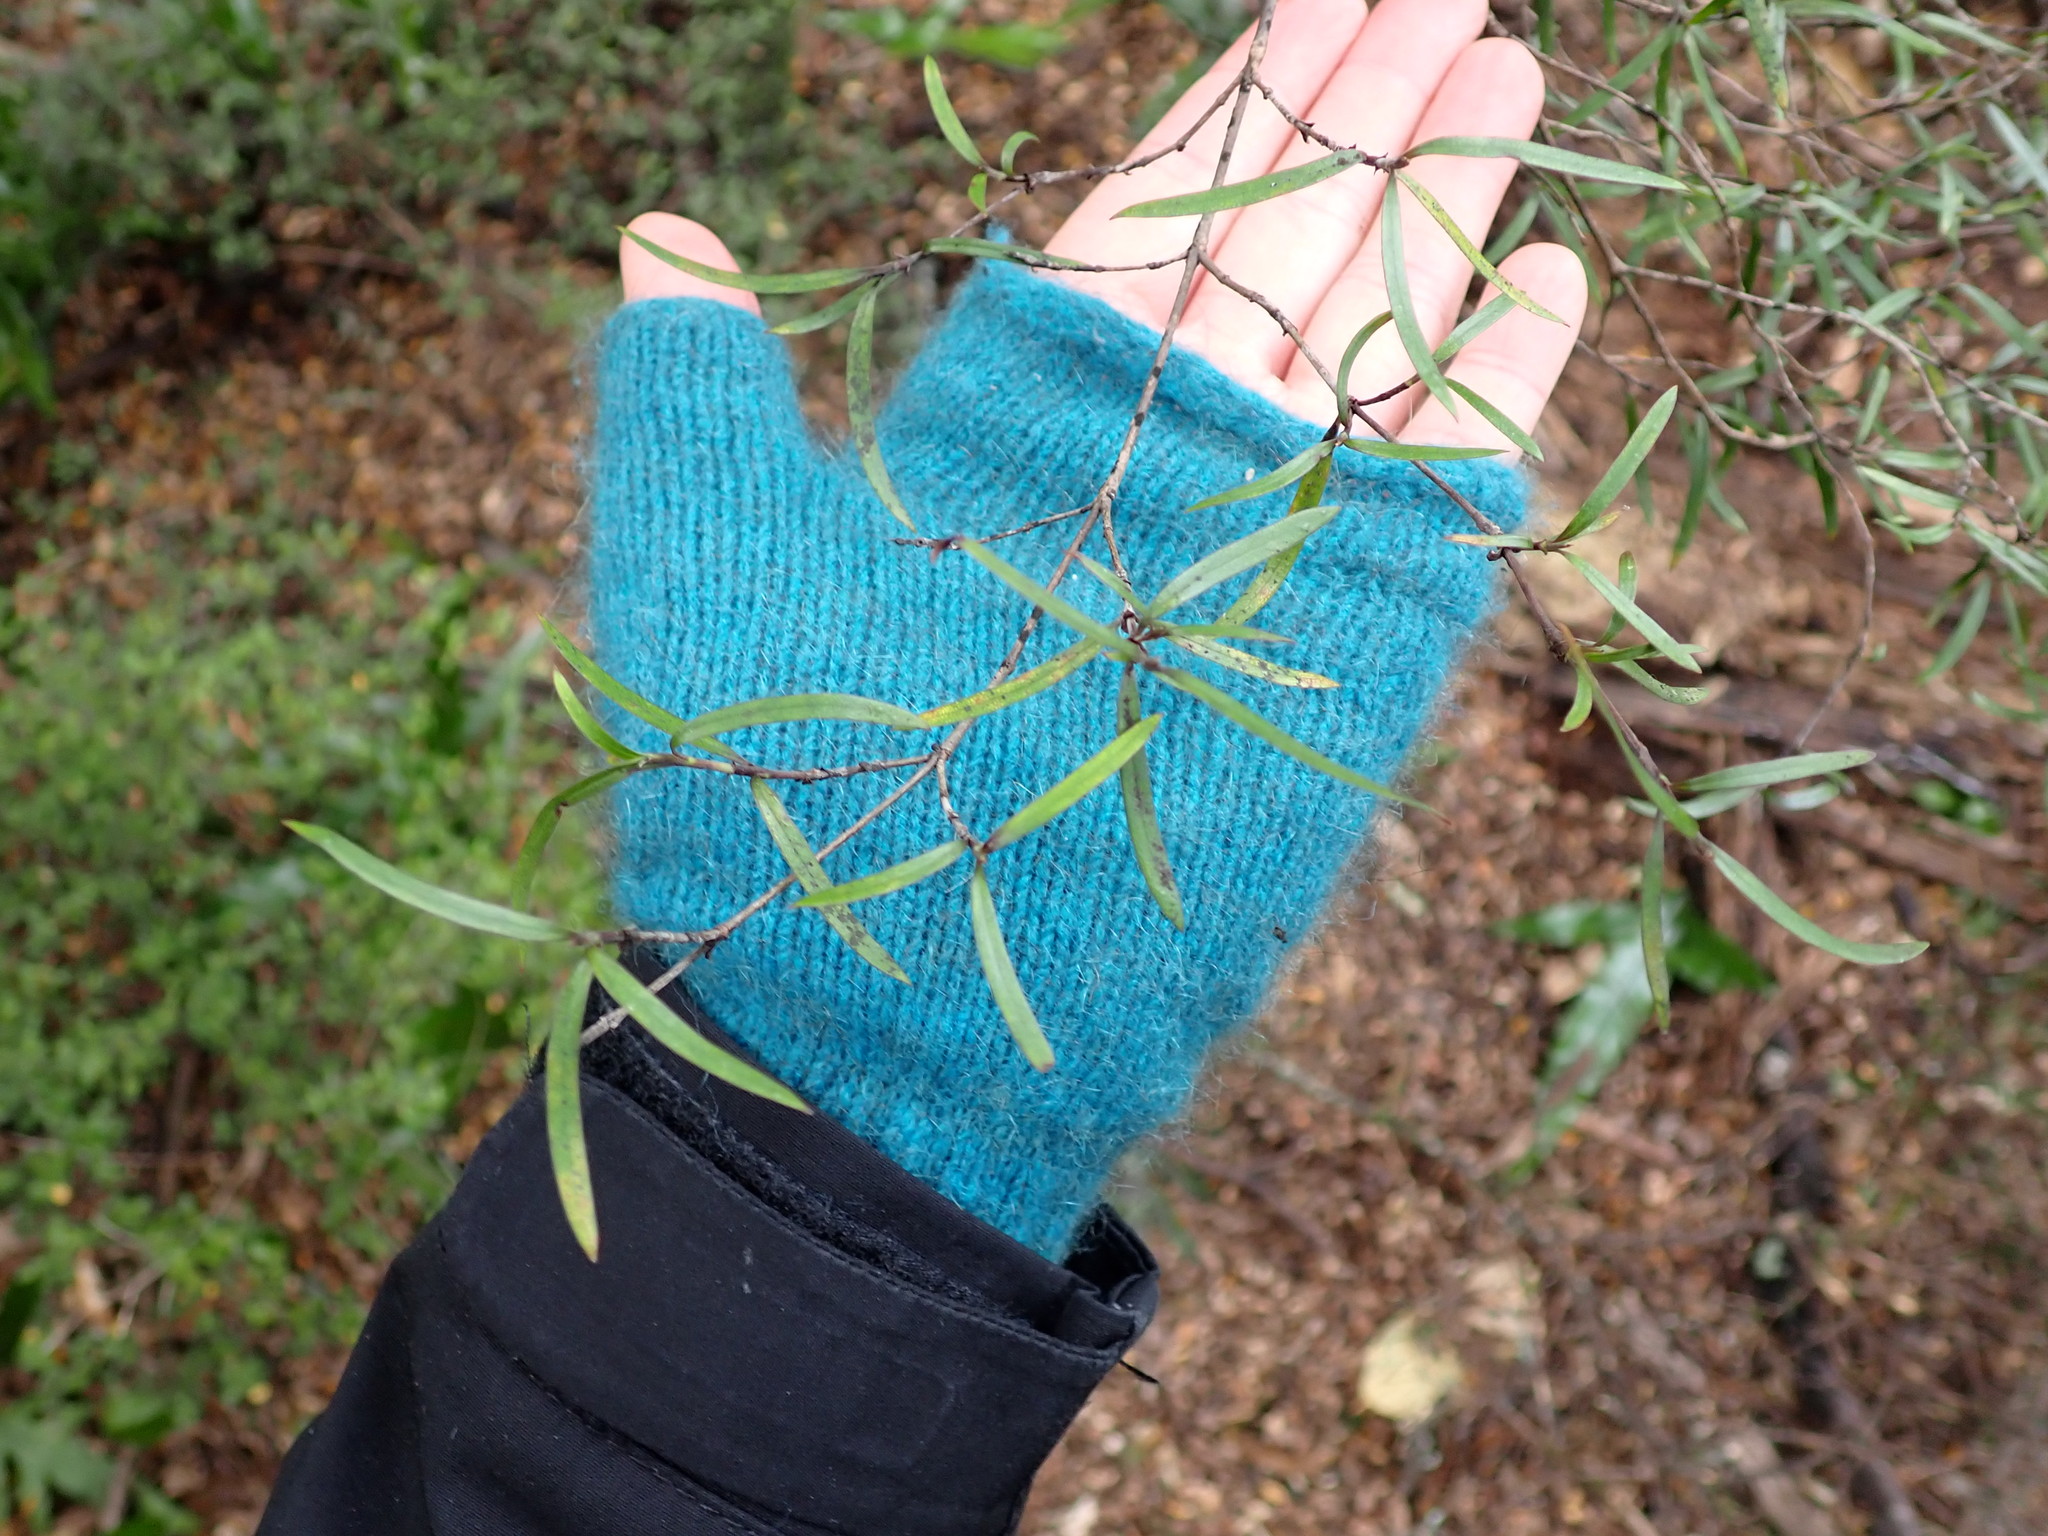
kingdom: Plantae
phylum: Tracheophyta
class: Magnoliopsida
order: Gentianales
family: Rubiaceae
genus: Coprosma
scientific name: Coprosma linariifolia
